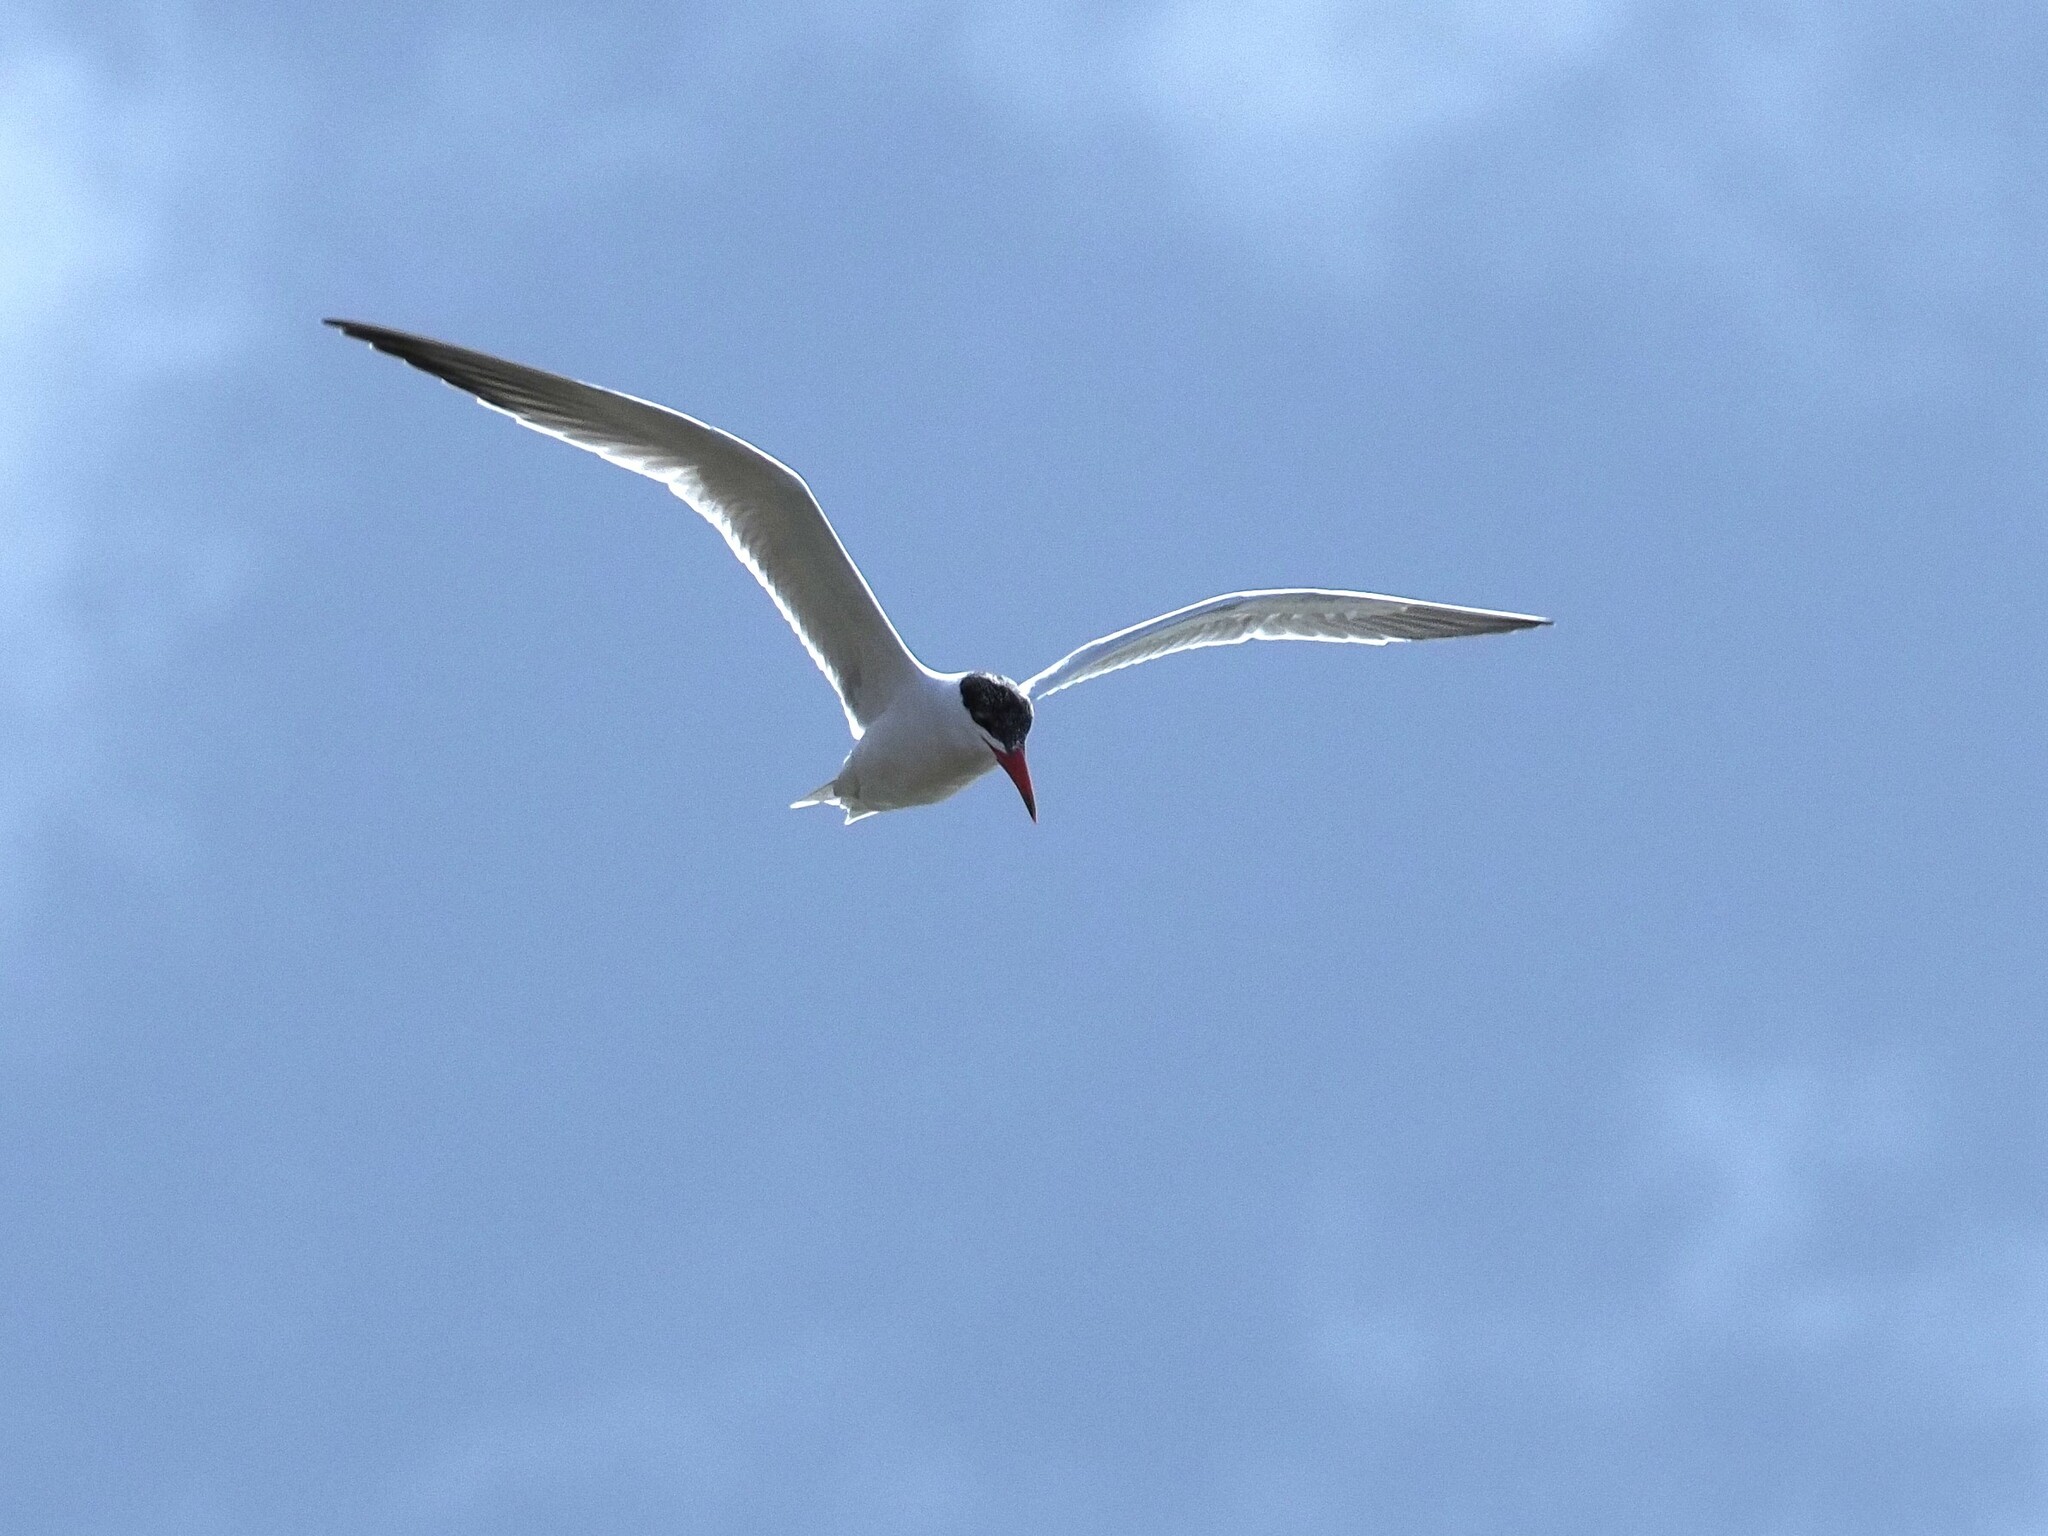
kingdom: Animalia
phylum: Chordata
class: Aves
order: Charadriiformes
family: Laridae
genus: Hydroprogne
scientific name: Hydroprogne caspia
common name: Caspian tern
